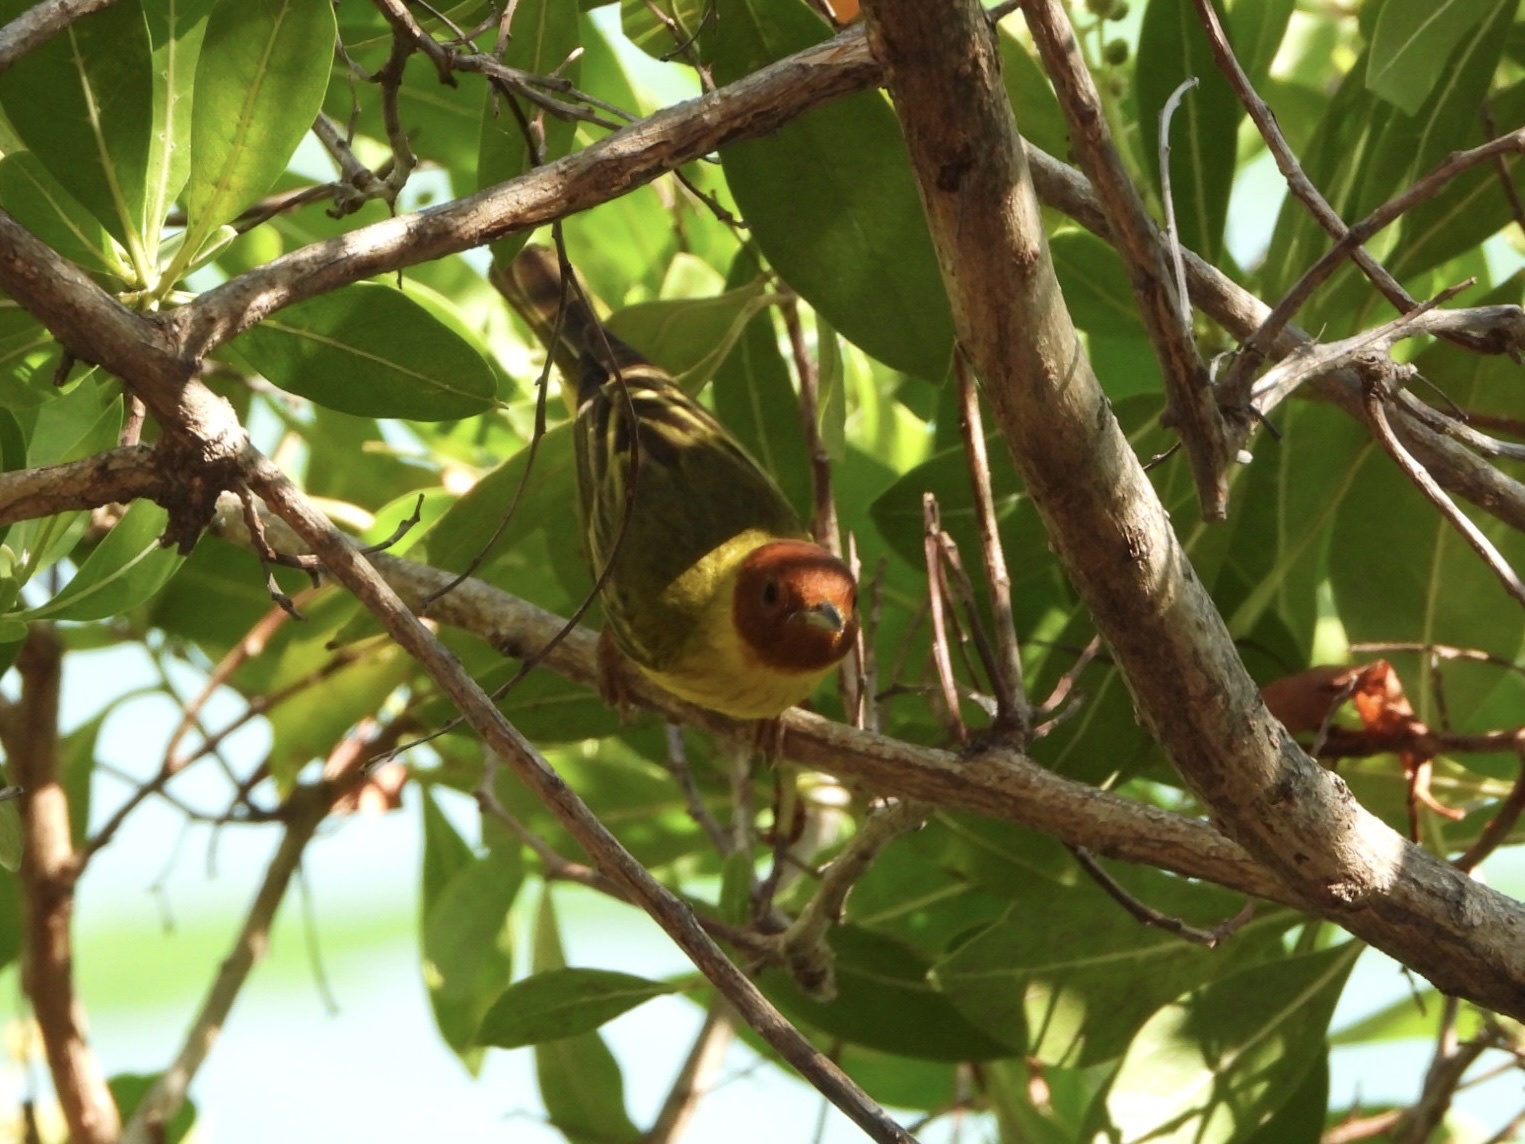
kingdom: Animalia
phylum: Chordata
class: Aves
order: Passeriformes
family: Parulidae
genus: Setophaga
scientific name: Setophaga petechia
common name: Yellow warbler
